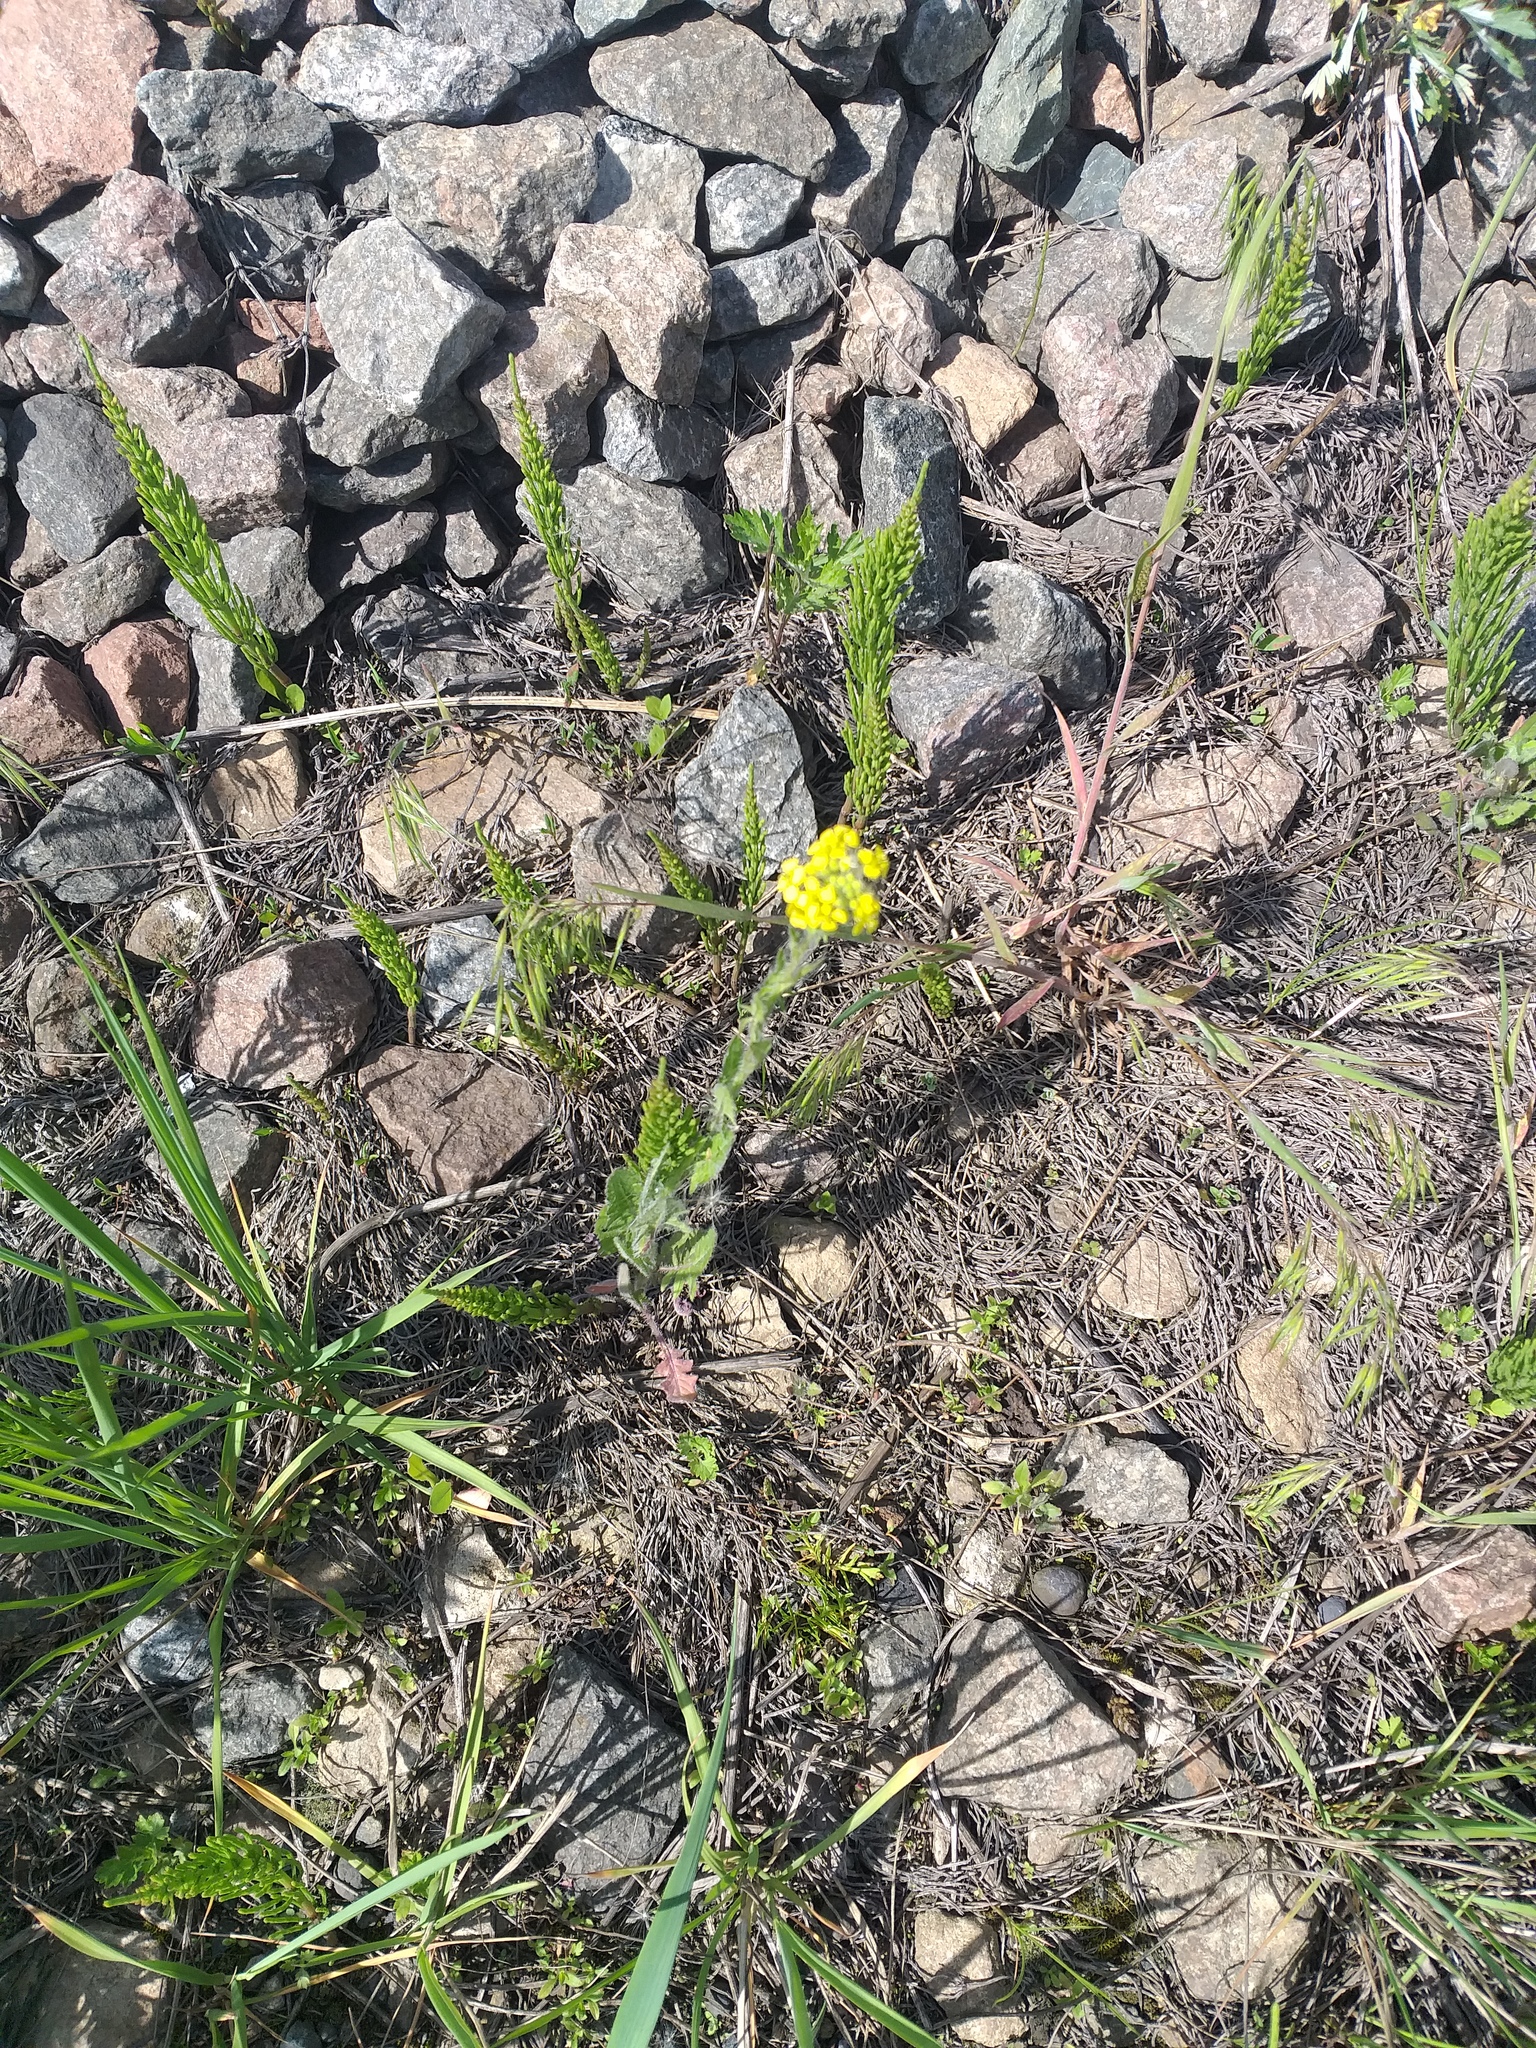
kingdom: Plantae
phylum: Tracheophyta
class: Magnoliopsida
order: Brassicales
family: Brassicaceae
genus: Sisymbrium
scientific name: Sisymbrium loeselii
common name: False london-rocket
